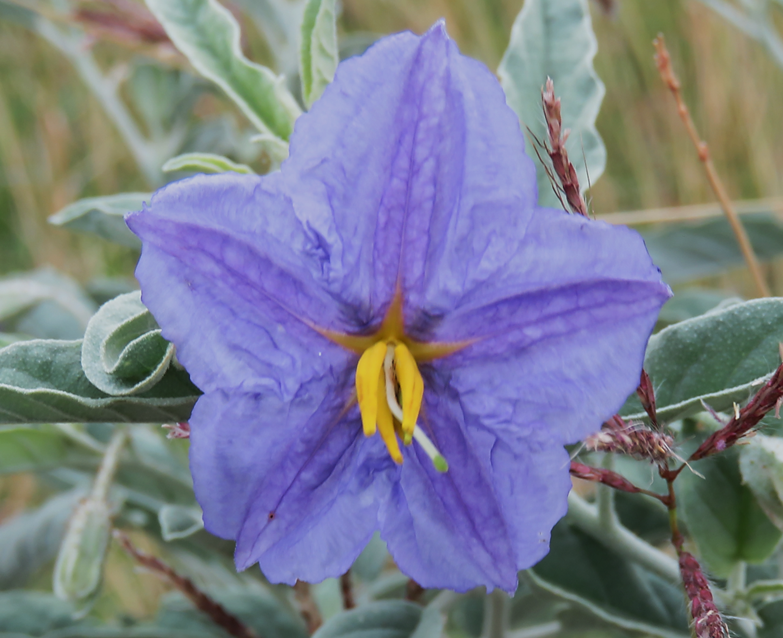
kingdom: Plantae
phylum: Tracheophyta
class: Magnoliopsida
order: Solanales
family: Solanaceae
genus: Solanum
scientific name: Solanum elaeagnifolium
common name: Silverleaf nightshade
